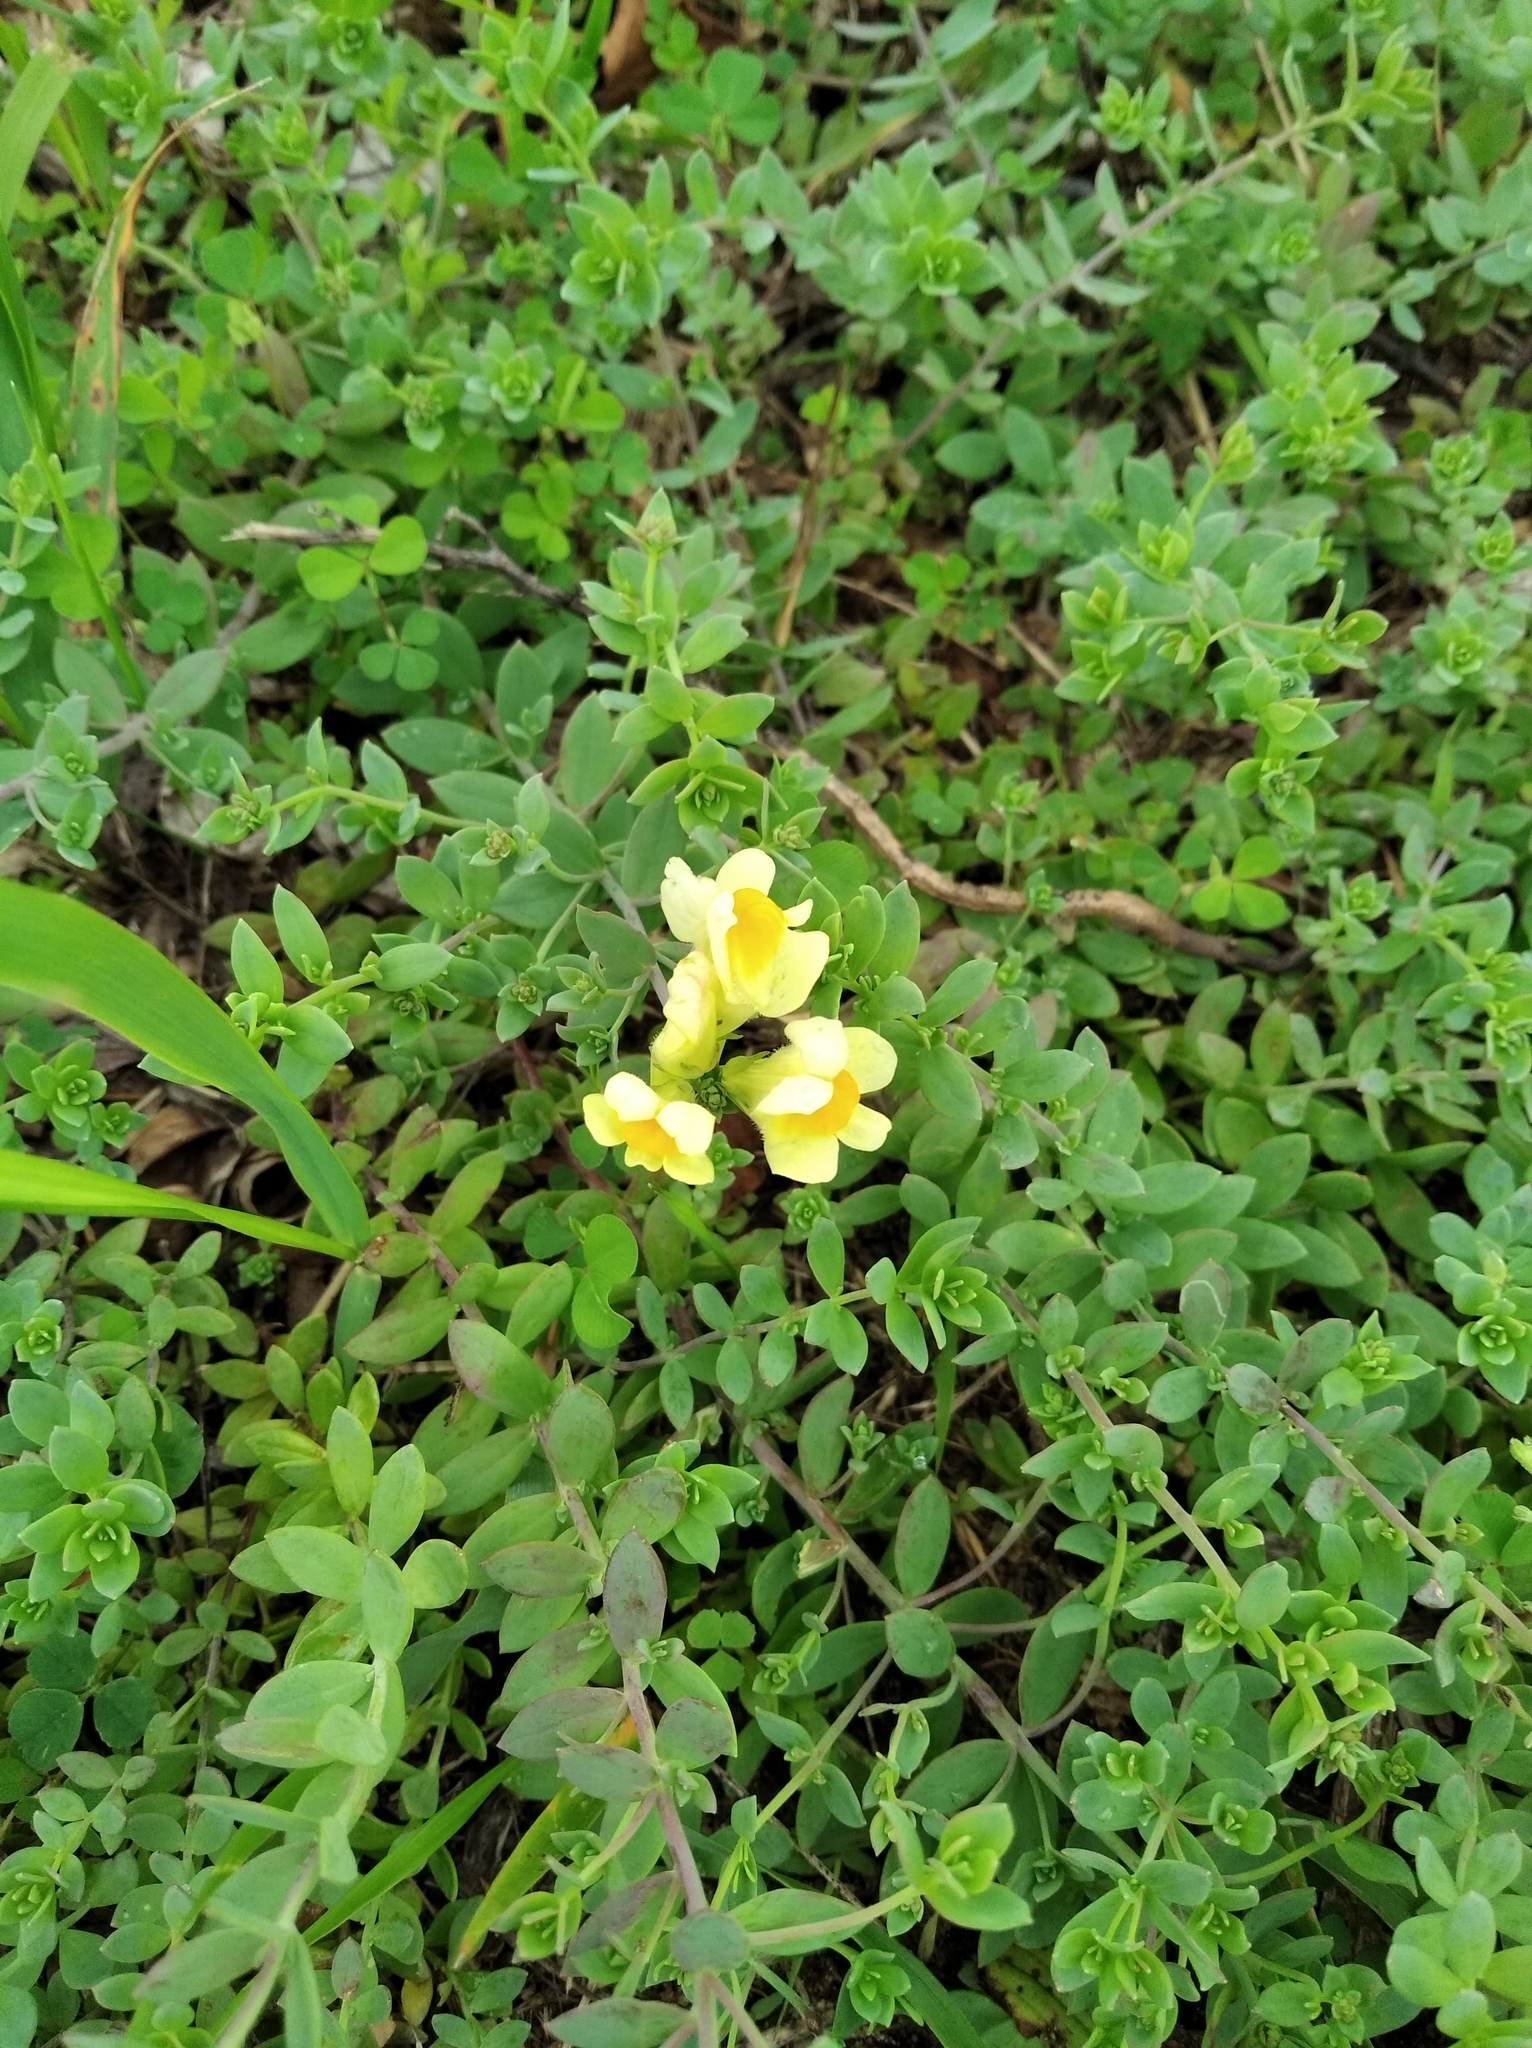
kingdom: Plantae
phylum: Tracheophyta
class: Magnoliopsida
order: Lamiales
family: Plantaginaceae
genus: Linaria
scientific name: Linaria japonica
